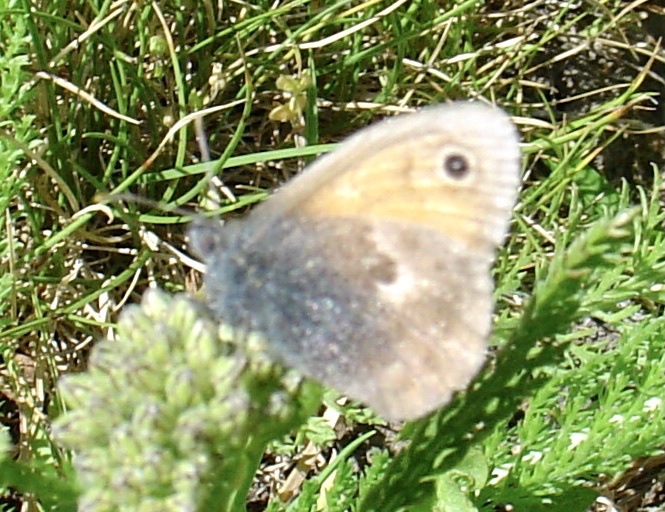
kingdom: Animalia
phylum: Arthropoda
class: Insecta
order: Lepidoptera
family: Nymphalidae
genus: Coenonympha
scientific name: Coenonympha pamphilus
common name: Small heath
